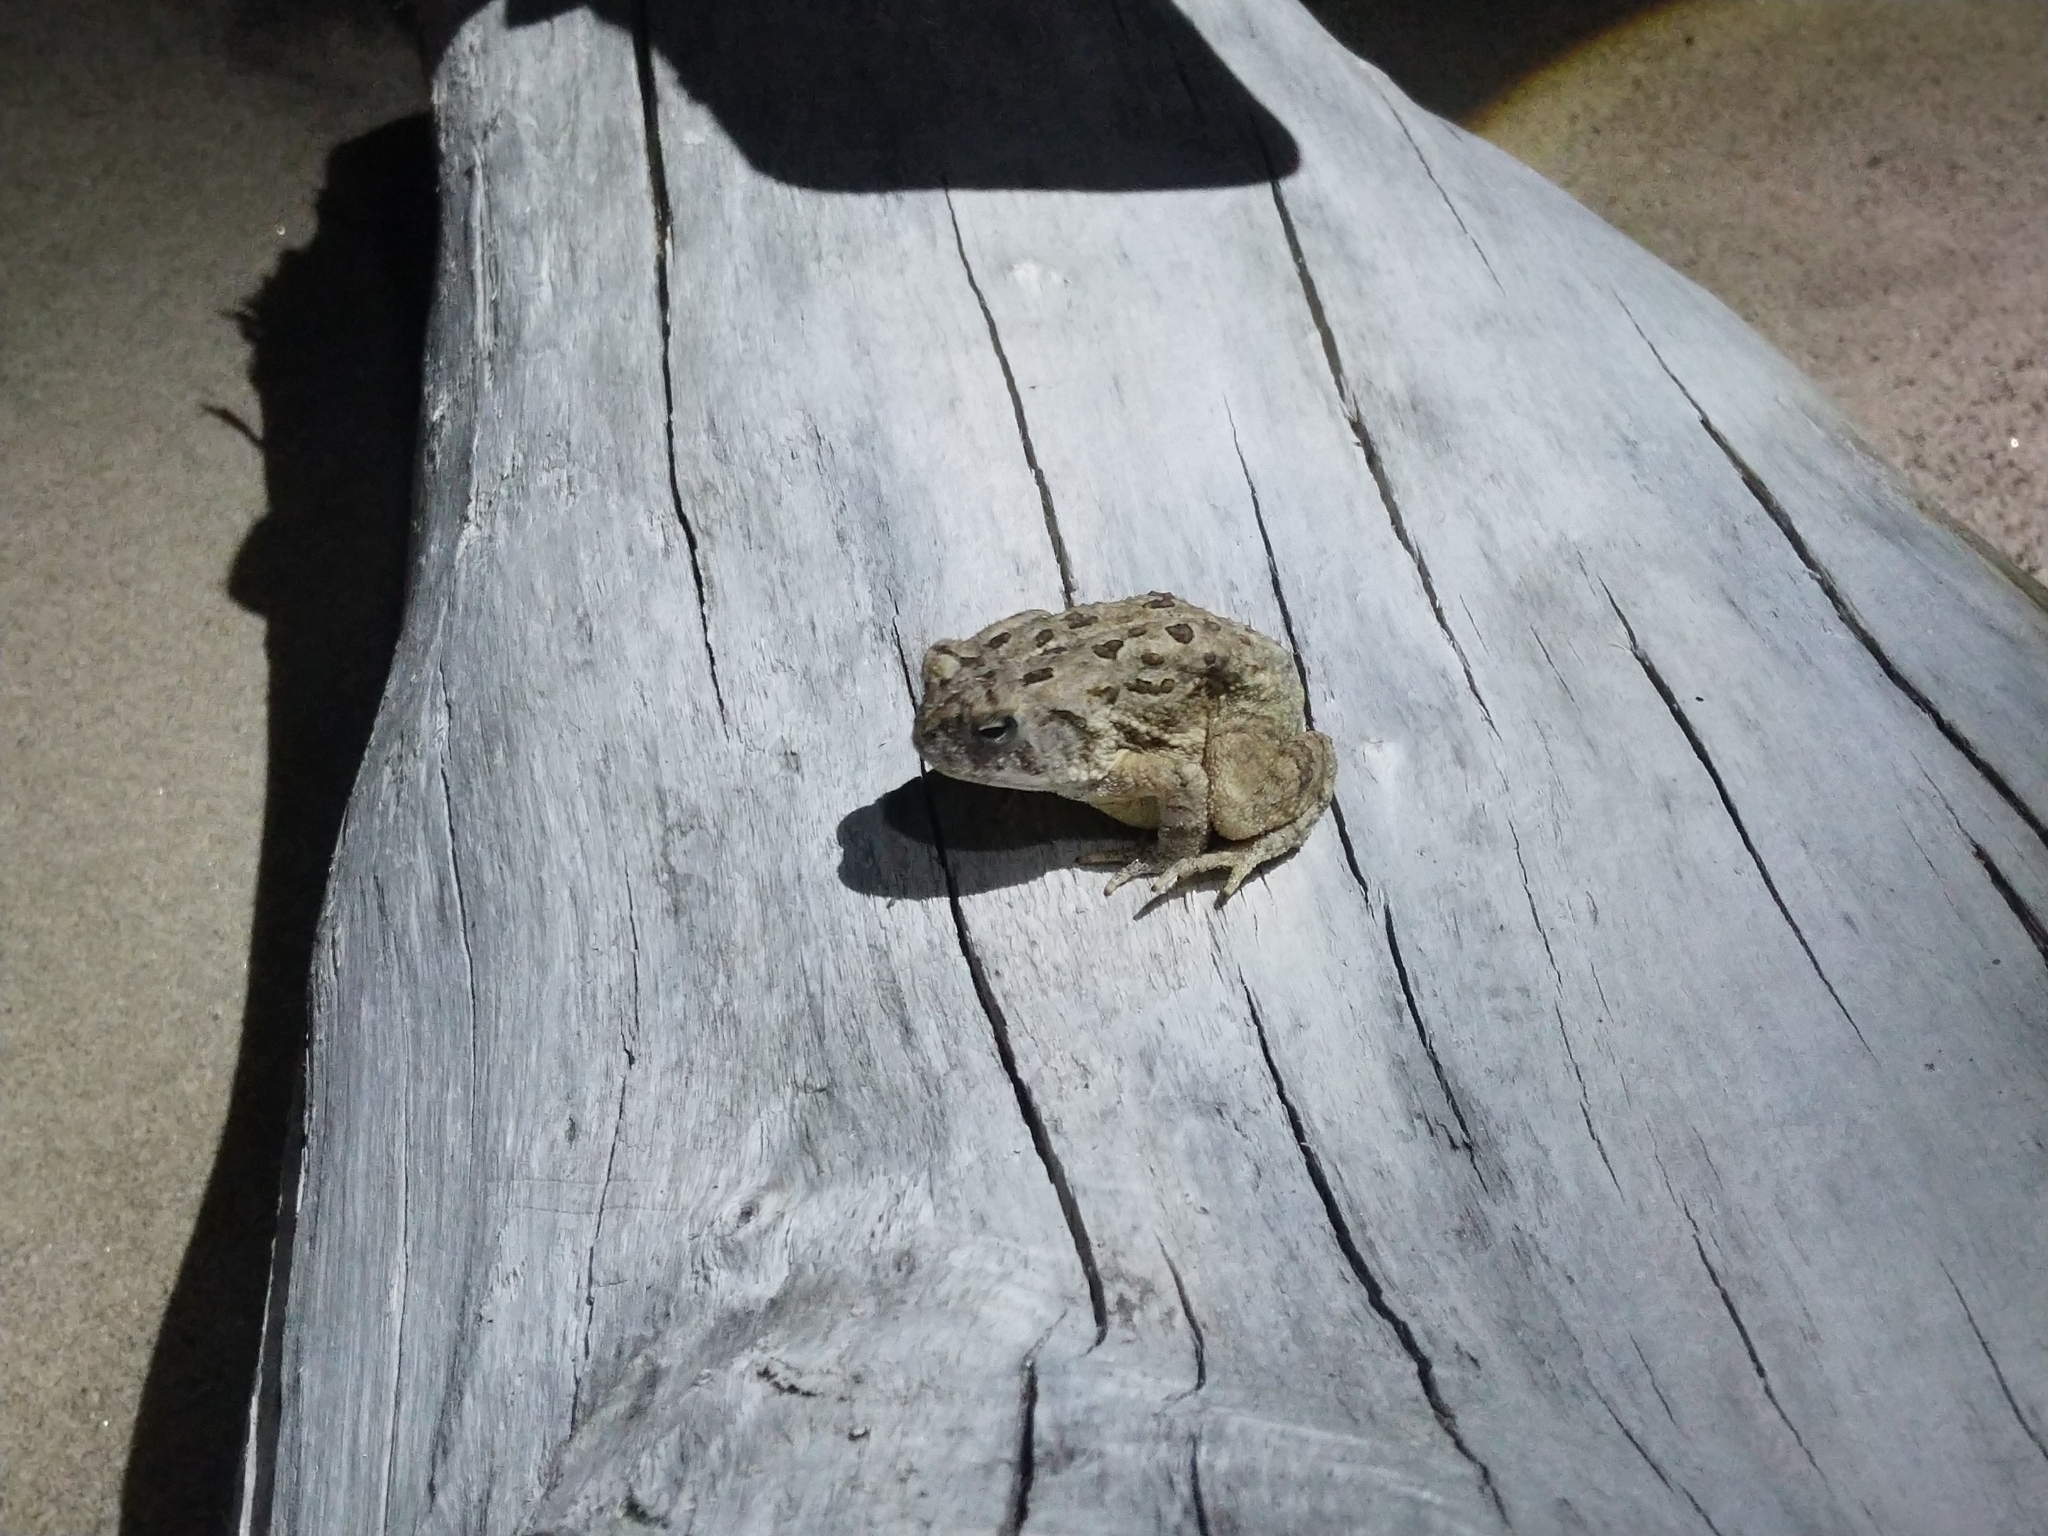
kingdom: Animalia
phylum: Chordata
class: Amphibia
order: Anura
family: Bufonidae
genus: Anaxyrus
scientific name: Anaxyrus fowleri
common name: Fowler's toad
